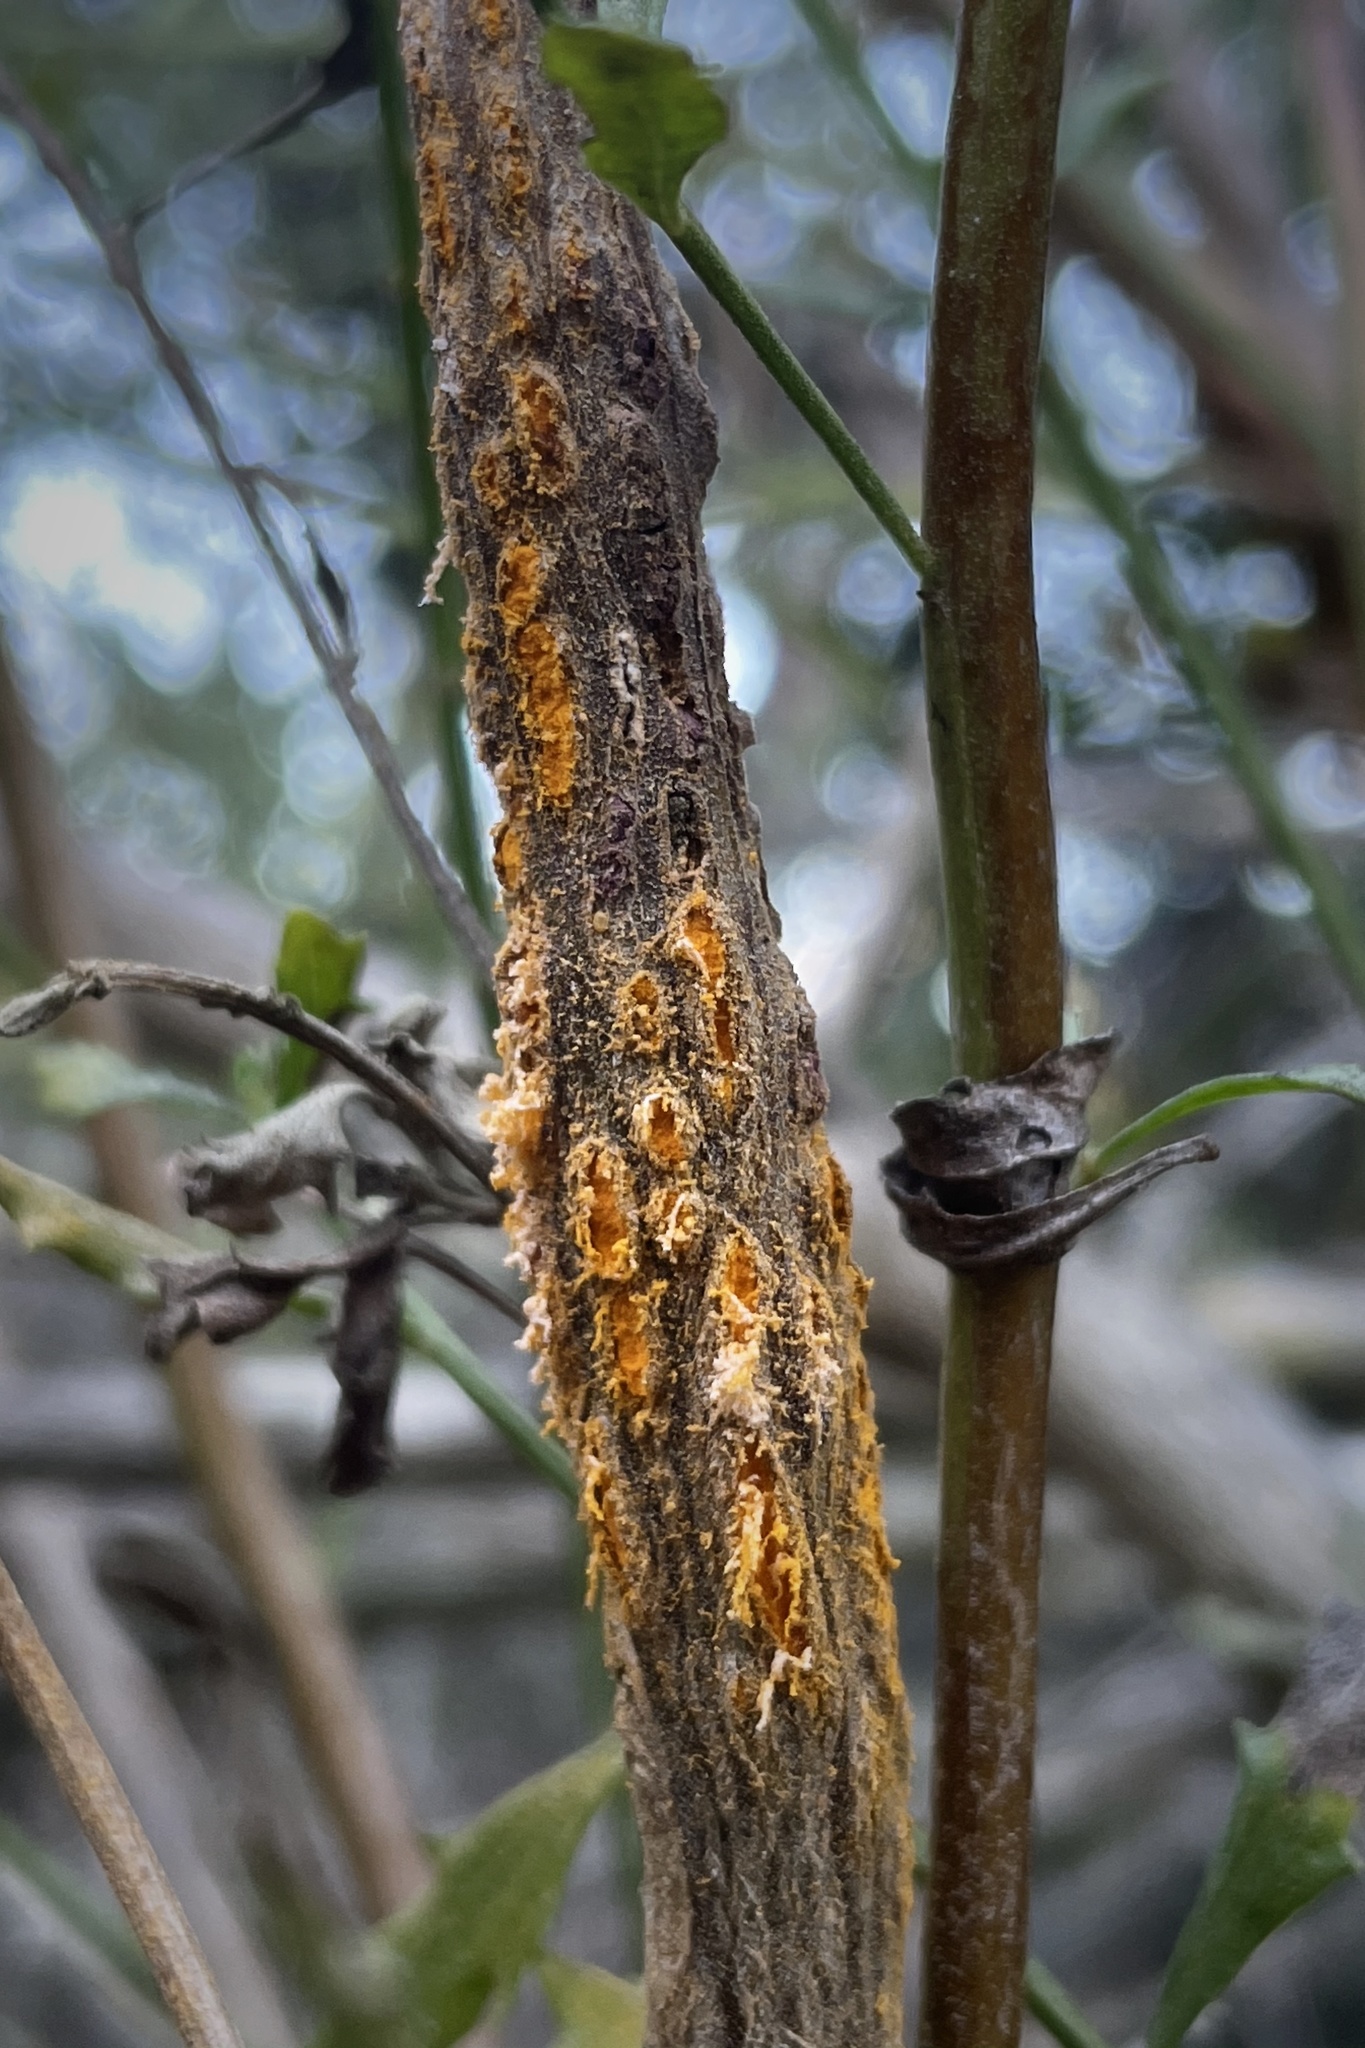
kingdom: Fungi
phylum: Basidiomycota
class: Pucciniomycetes
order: Pucciniales
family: Pucciniaceae
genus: Eriosporangium
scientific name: Eriosporangium evadens
